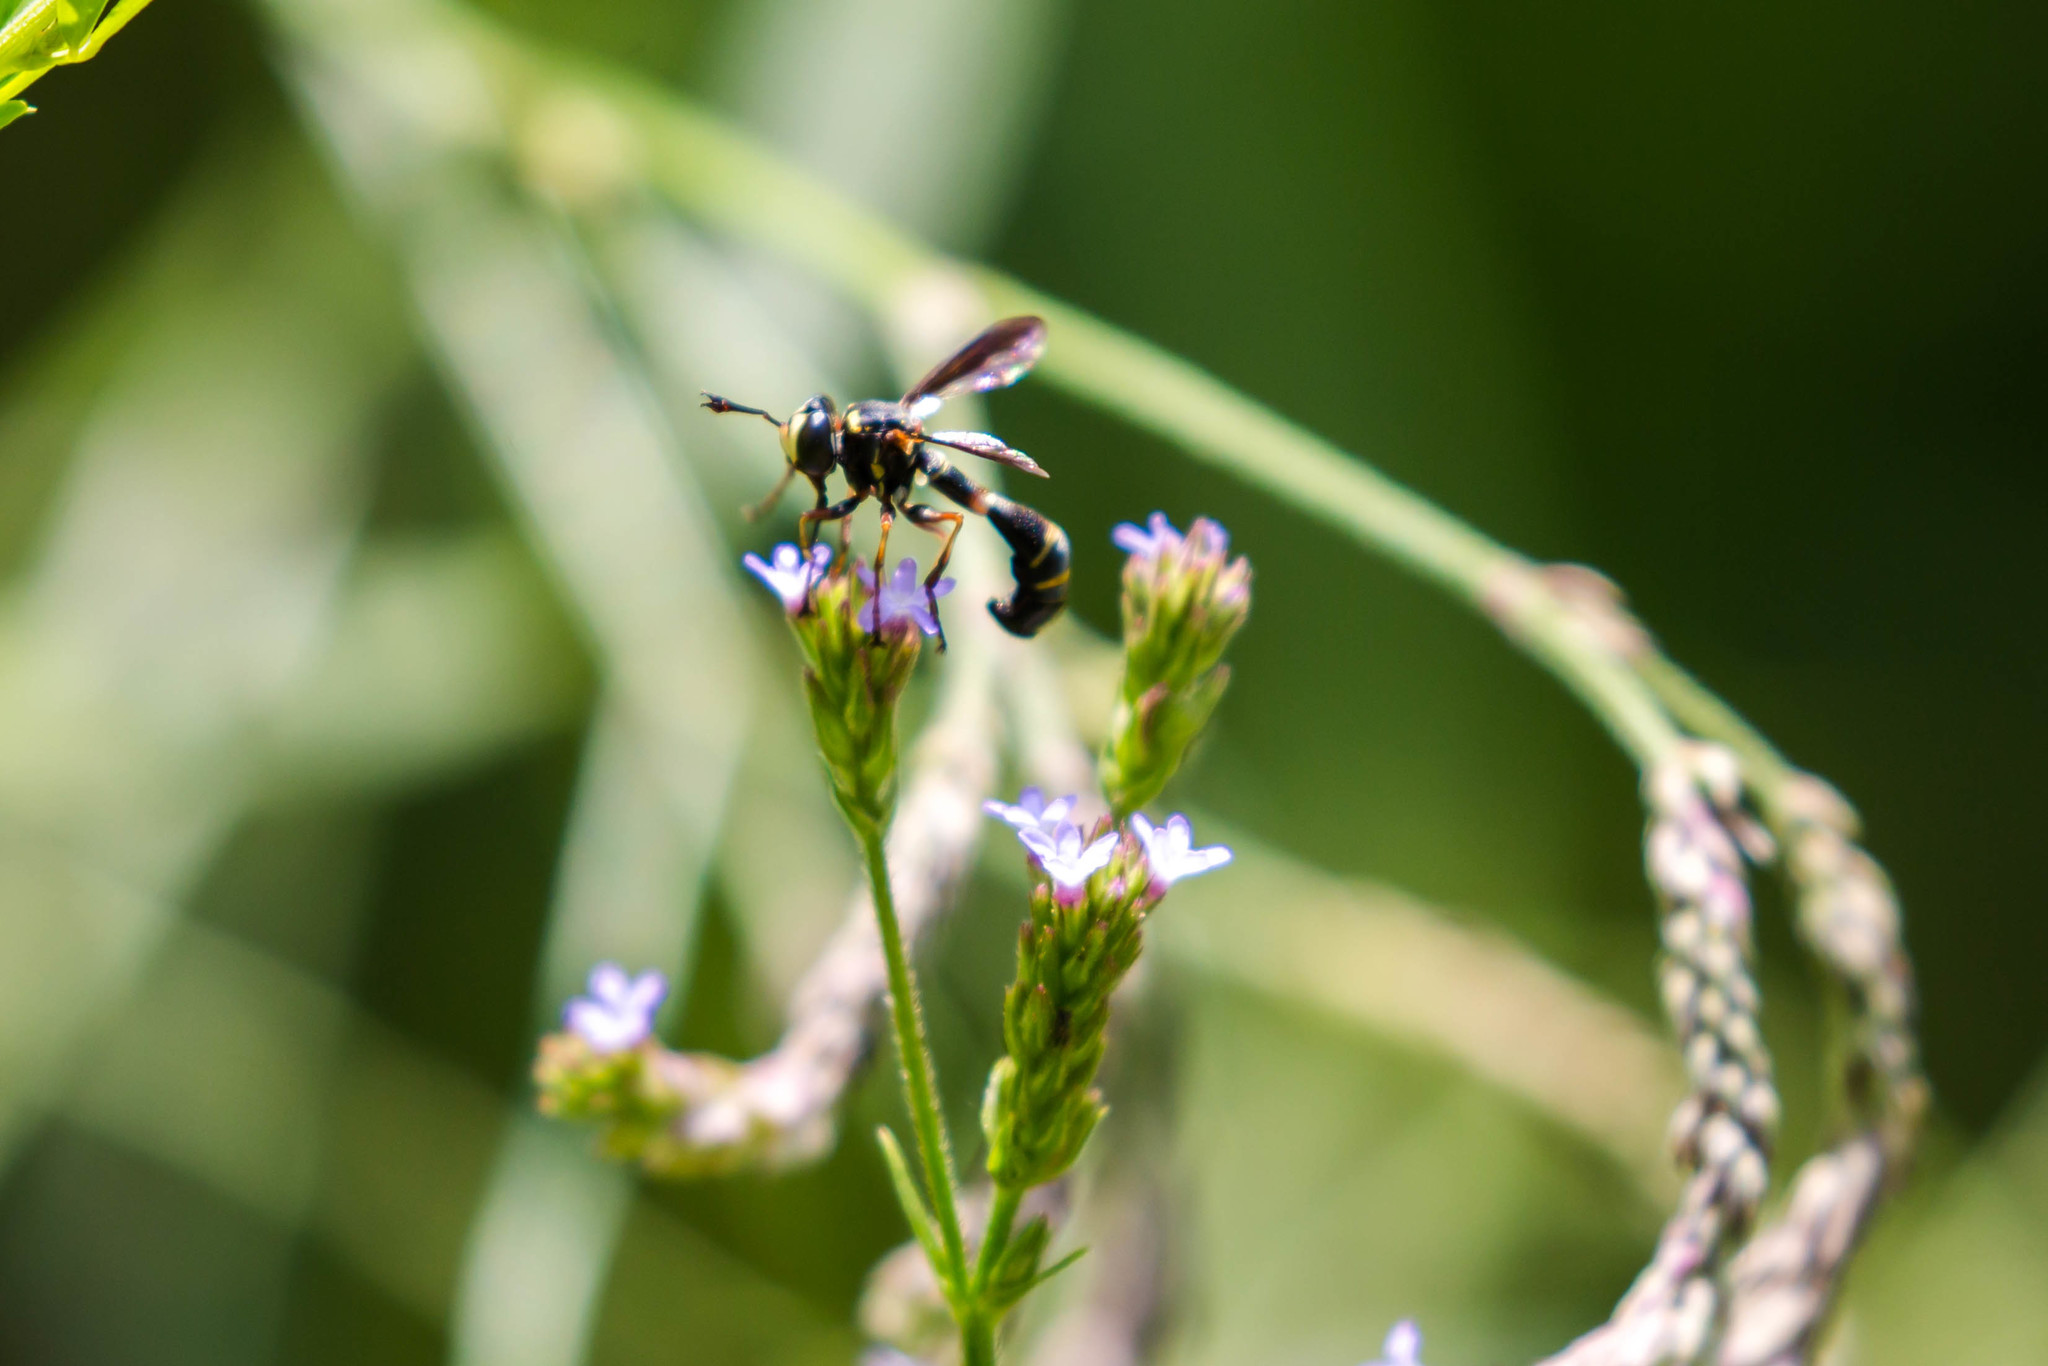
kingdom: Animalia
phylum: Arthropoda
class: Insecta
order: Diptera
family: Conopidae
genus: Physocephala
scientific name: Physocephala marginata
